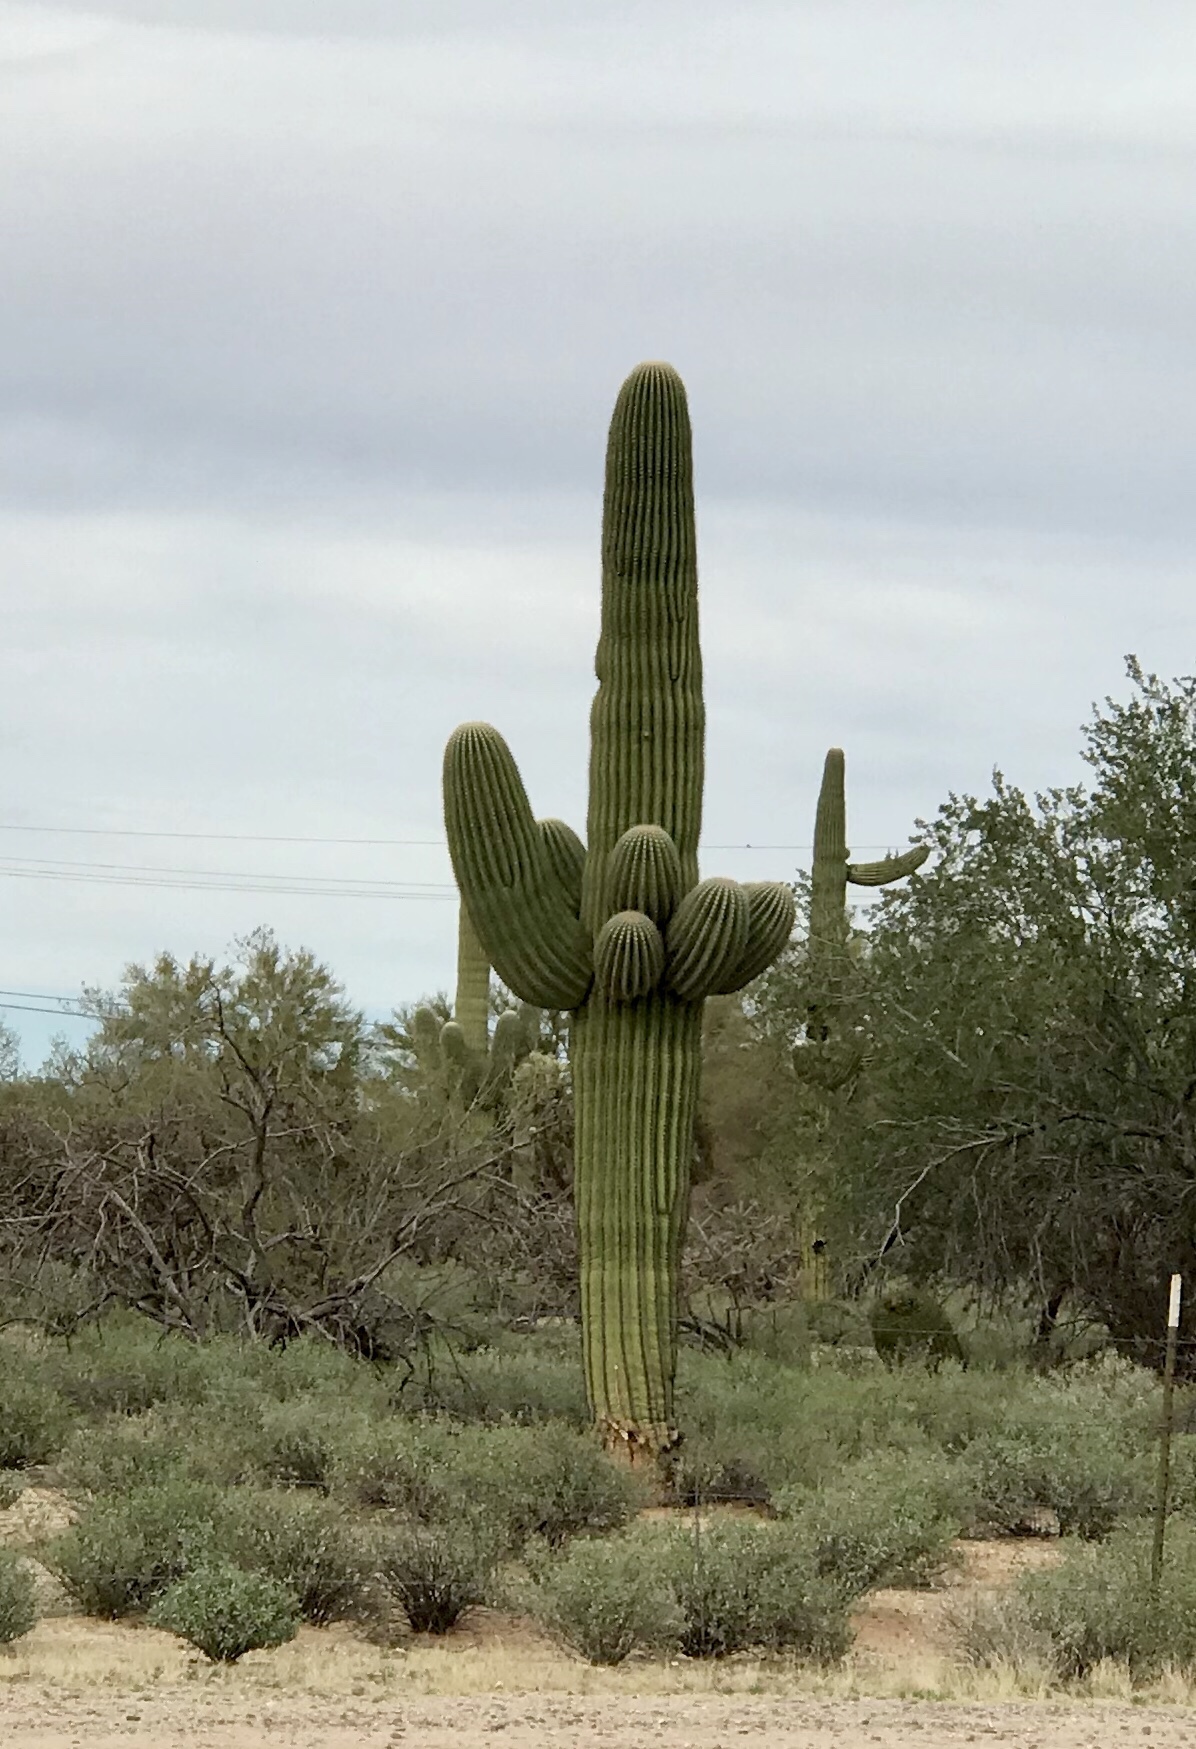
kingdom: Plantae
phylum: Tracheophyta
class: Magnoliopsida
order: Caryophyllales
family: Cactaceae
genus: Carnegiea
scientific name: Carnegiea gigantea
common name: Saguaro
